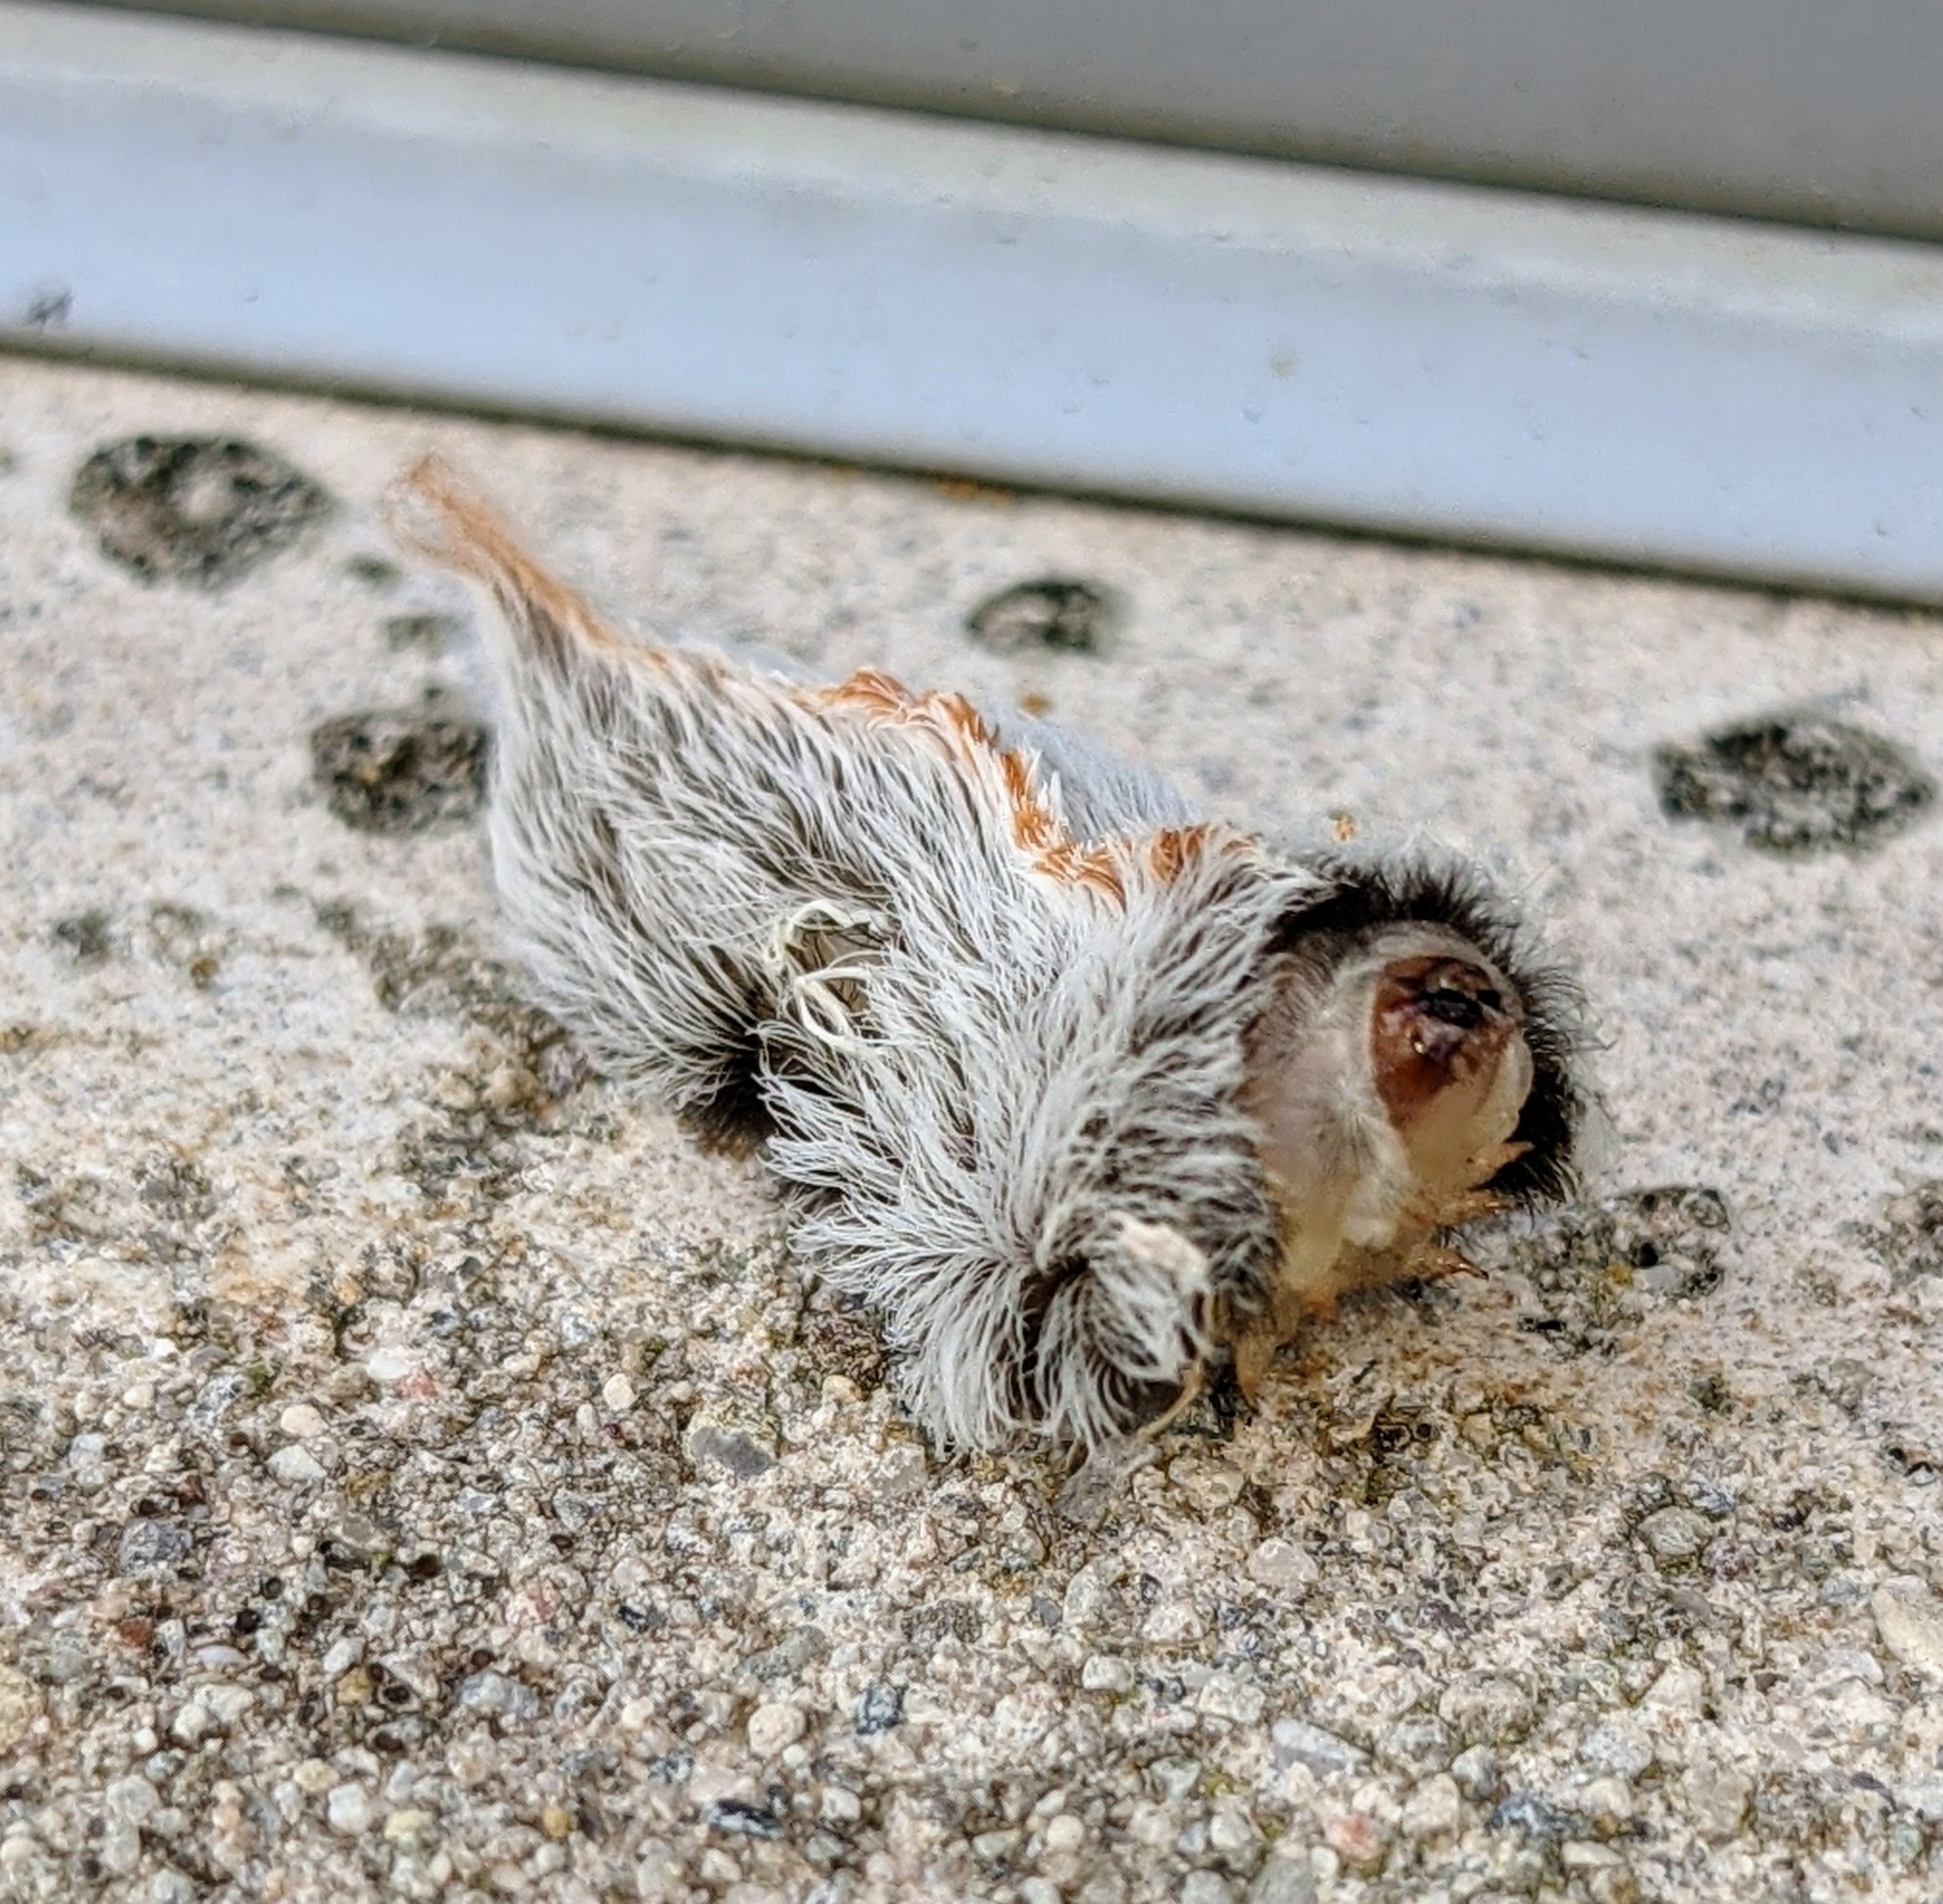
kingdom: Animalia
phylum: Arthropoda
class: Insecta
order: Lepidoptera
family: Megalopygidae
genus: Megalopyge
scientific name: Megalopyge opercularis
